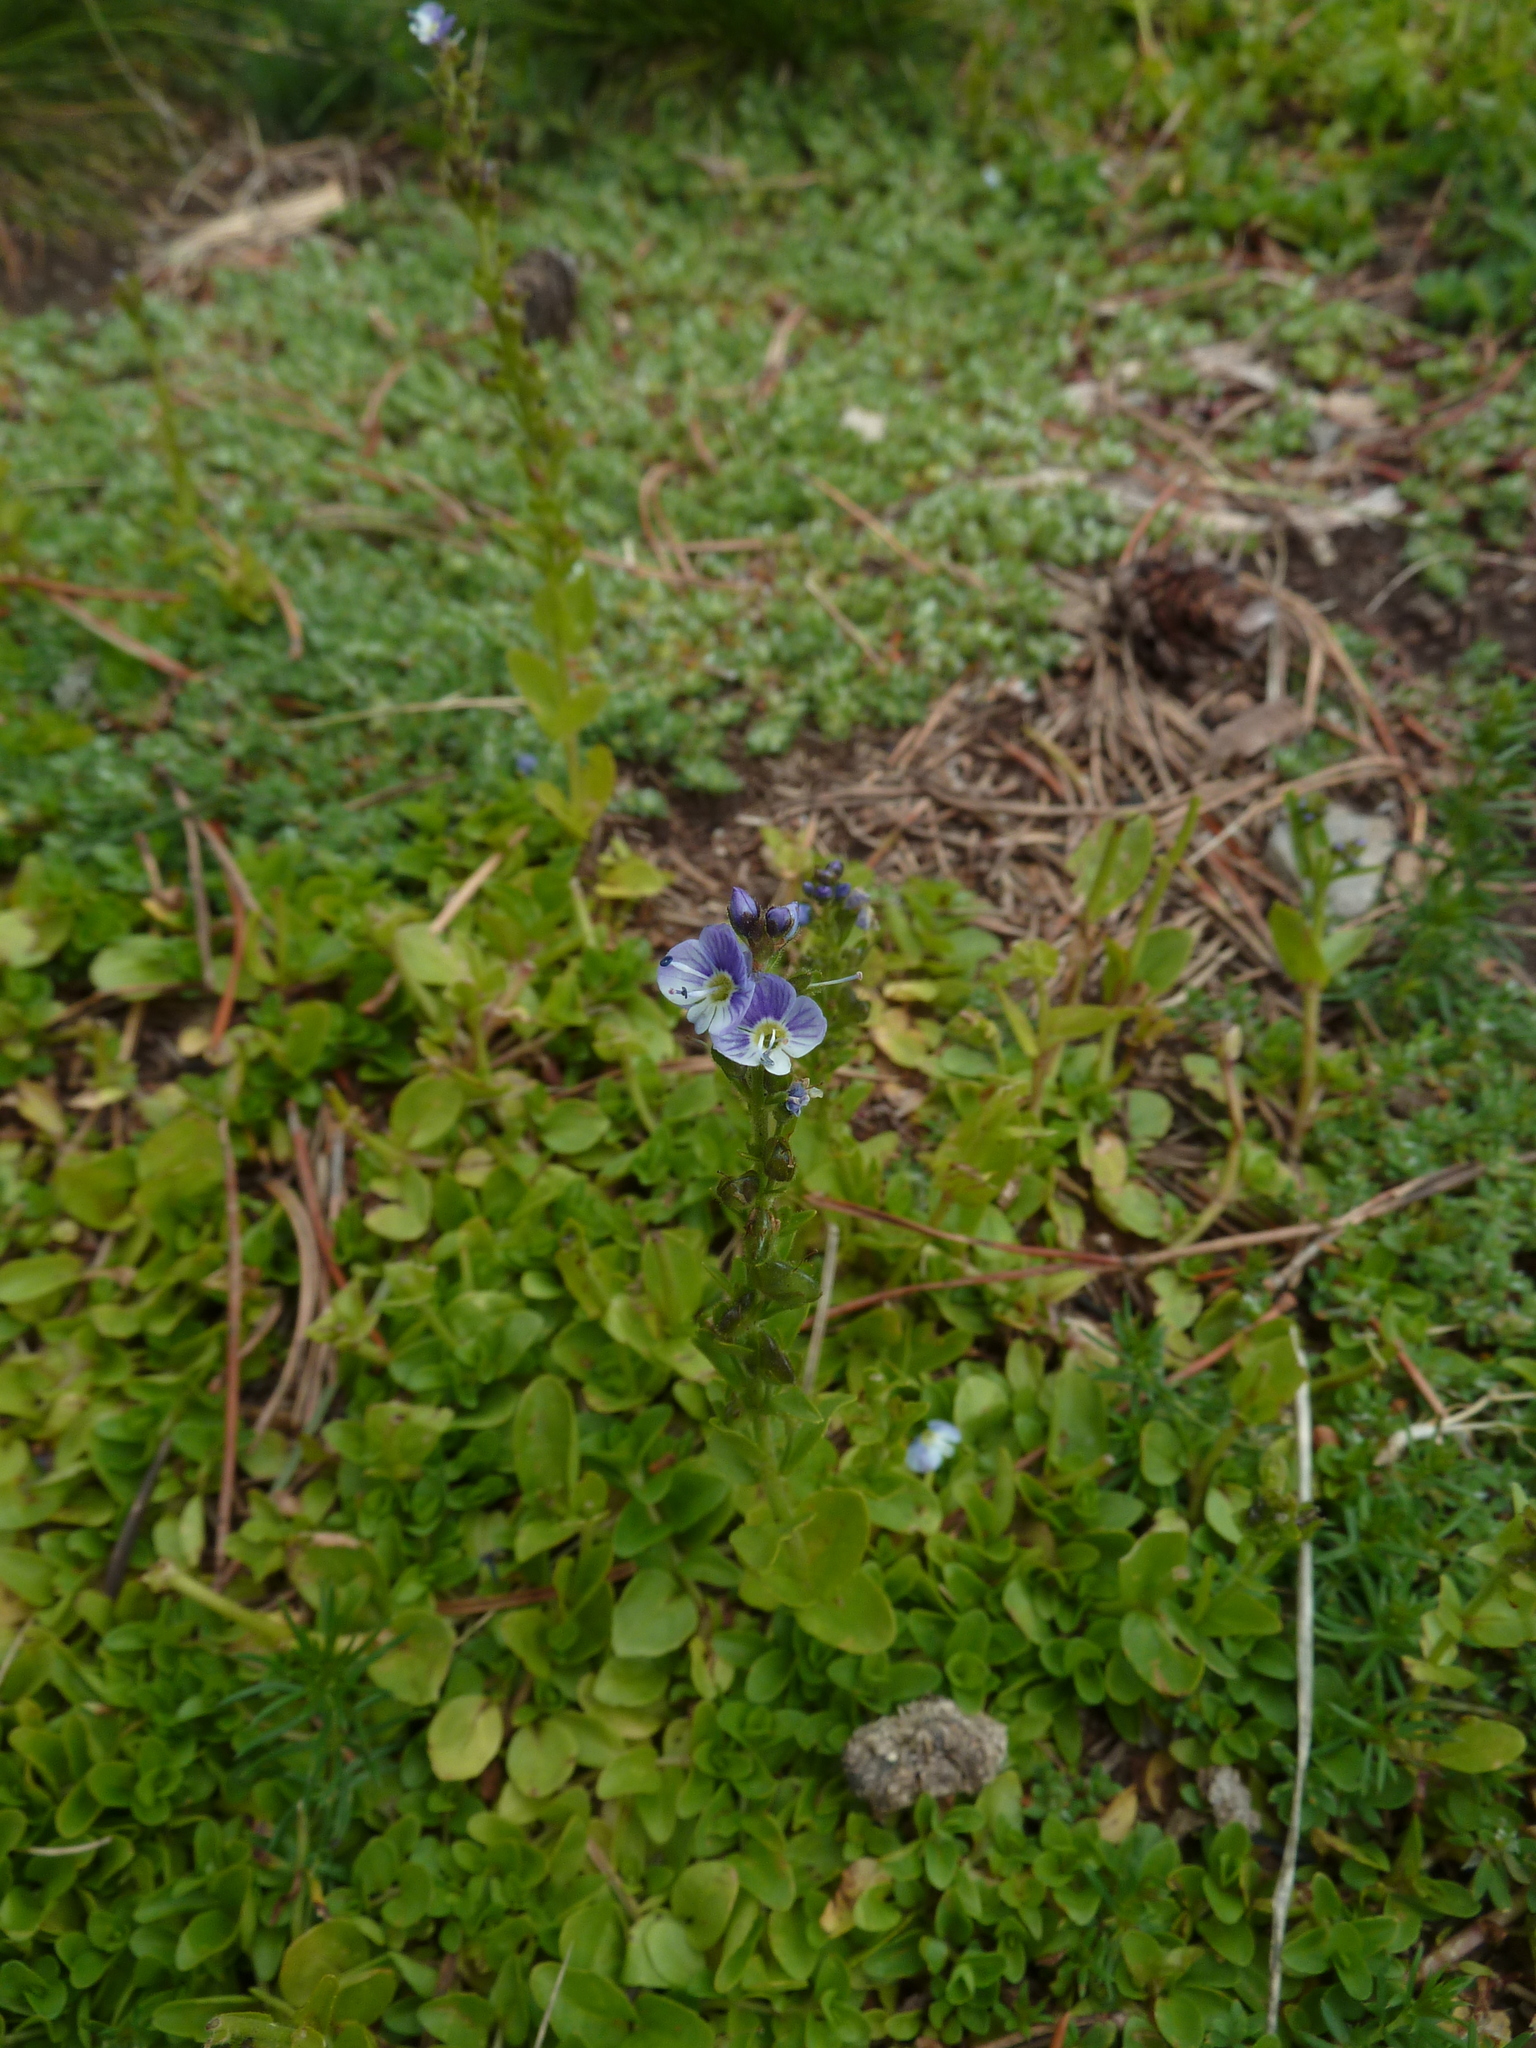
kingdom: Plantae
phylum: Tracheophyta
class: Magnoliopsida
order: Lamiales
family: Plantaginaceae
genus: Veronica
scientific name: Veronica serpyllifolia
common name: Thyme-leaved speedwell
